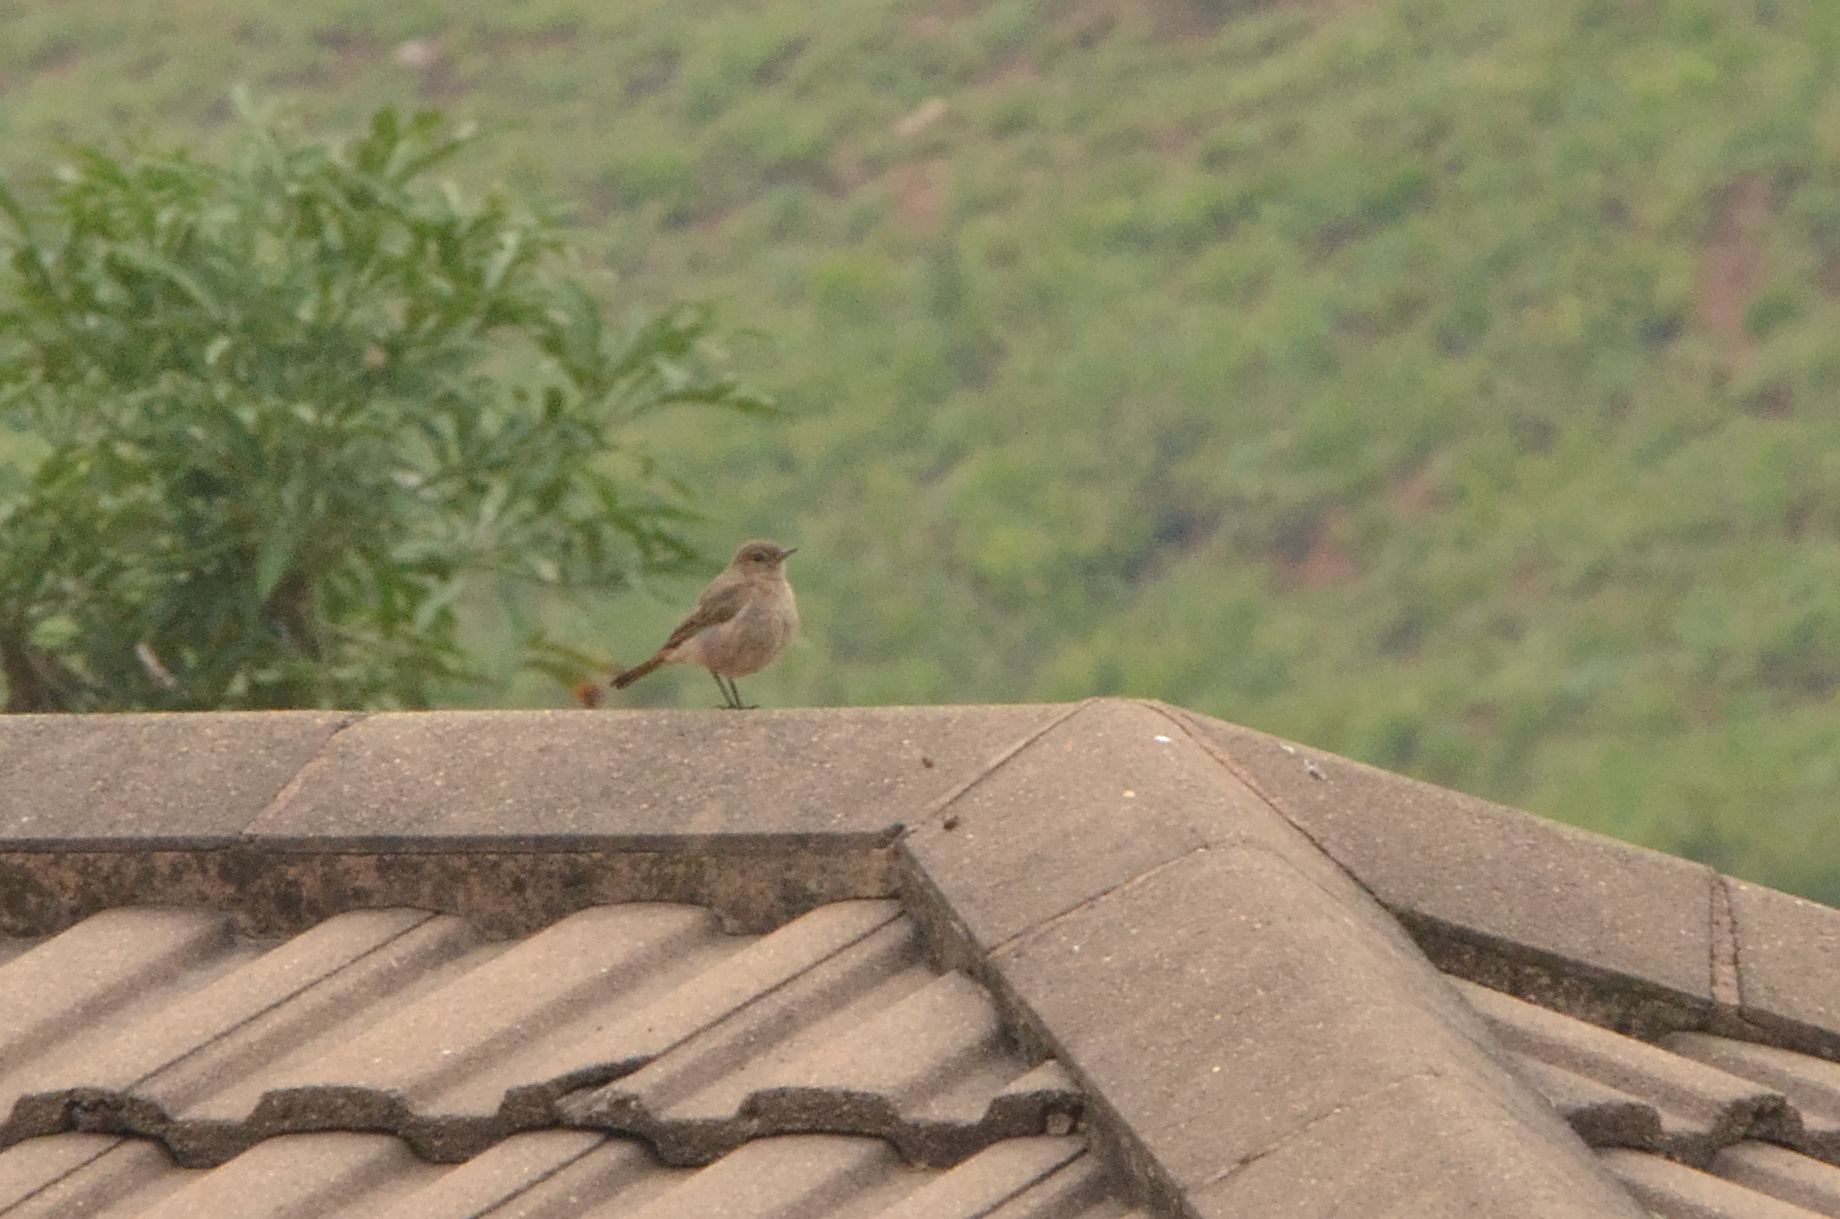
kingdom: Animalia
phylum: Chordata
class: Aves
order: Passeriformes
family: Muscicapidae
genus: Oenanthe
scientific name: Oenanthe familiaris
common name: Familiar chat
